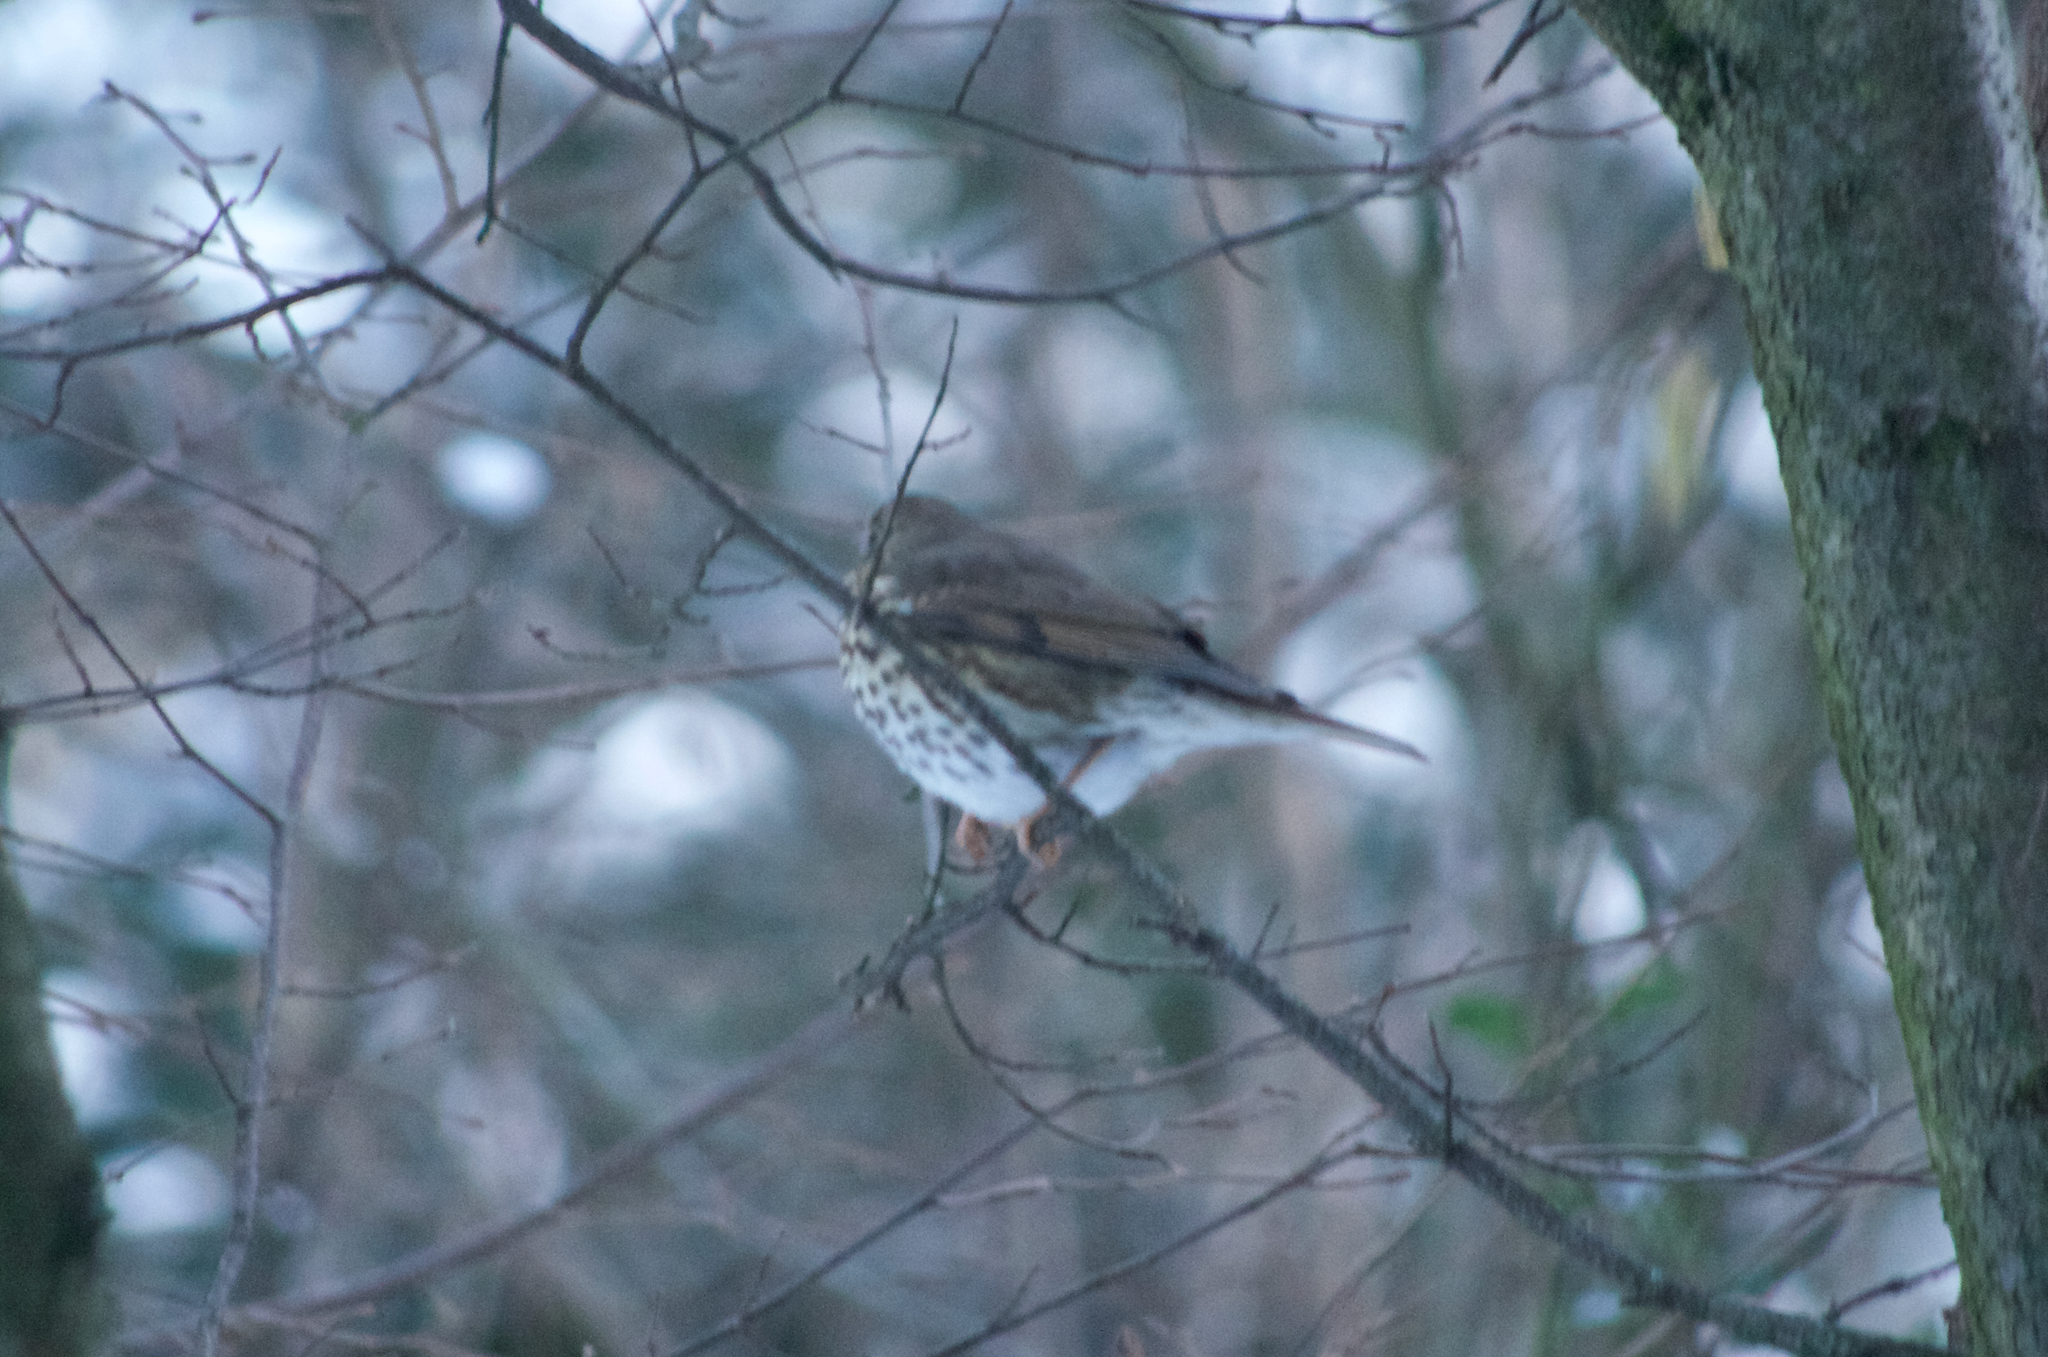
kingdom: Animalia
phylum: Chordata
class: Aves
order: Passeriformes
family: Turdidae
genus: Turdus
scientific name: Turdus philomelos
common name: Song thrush
